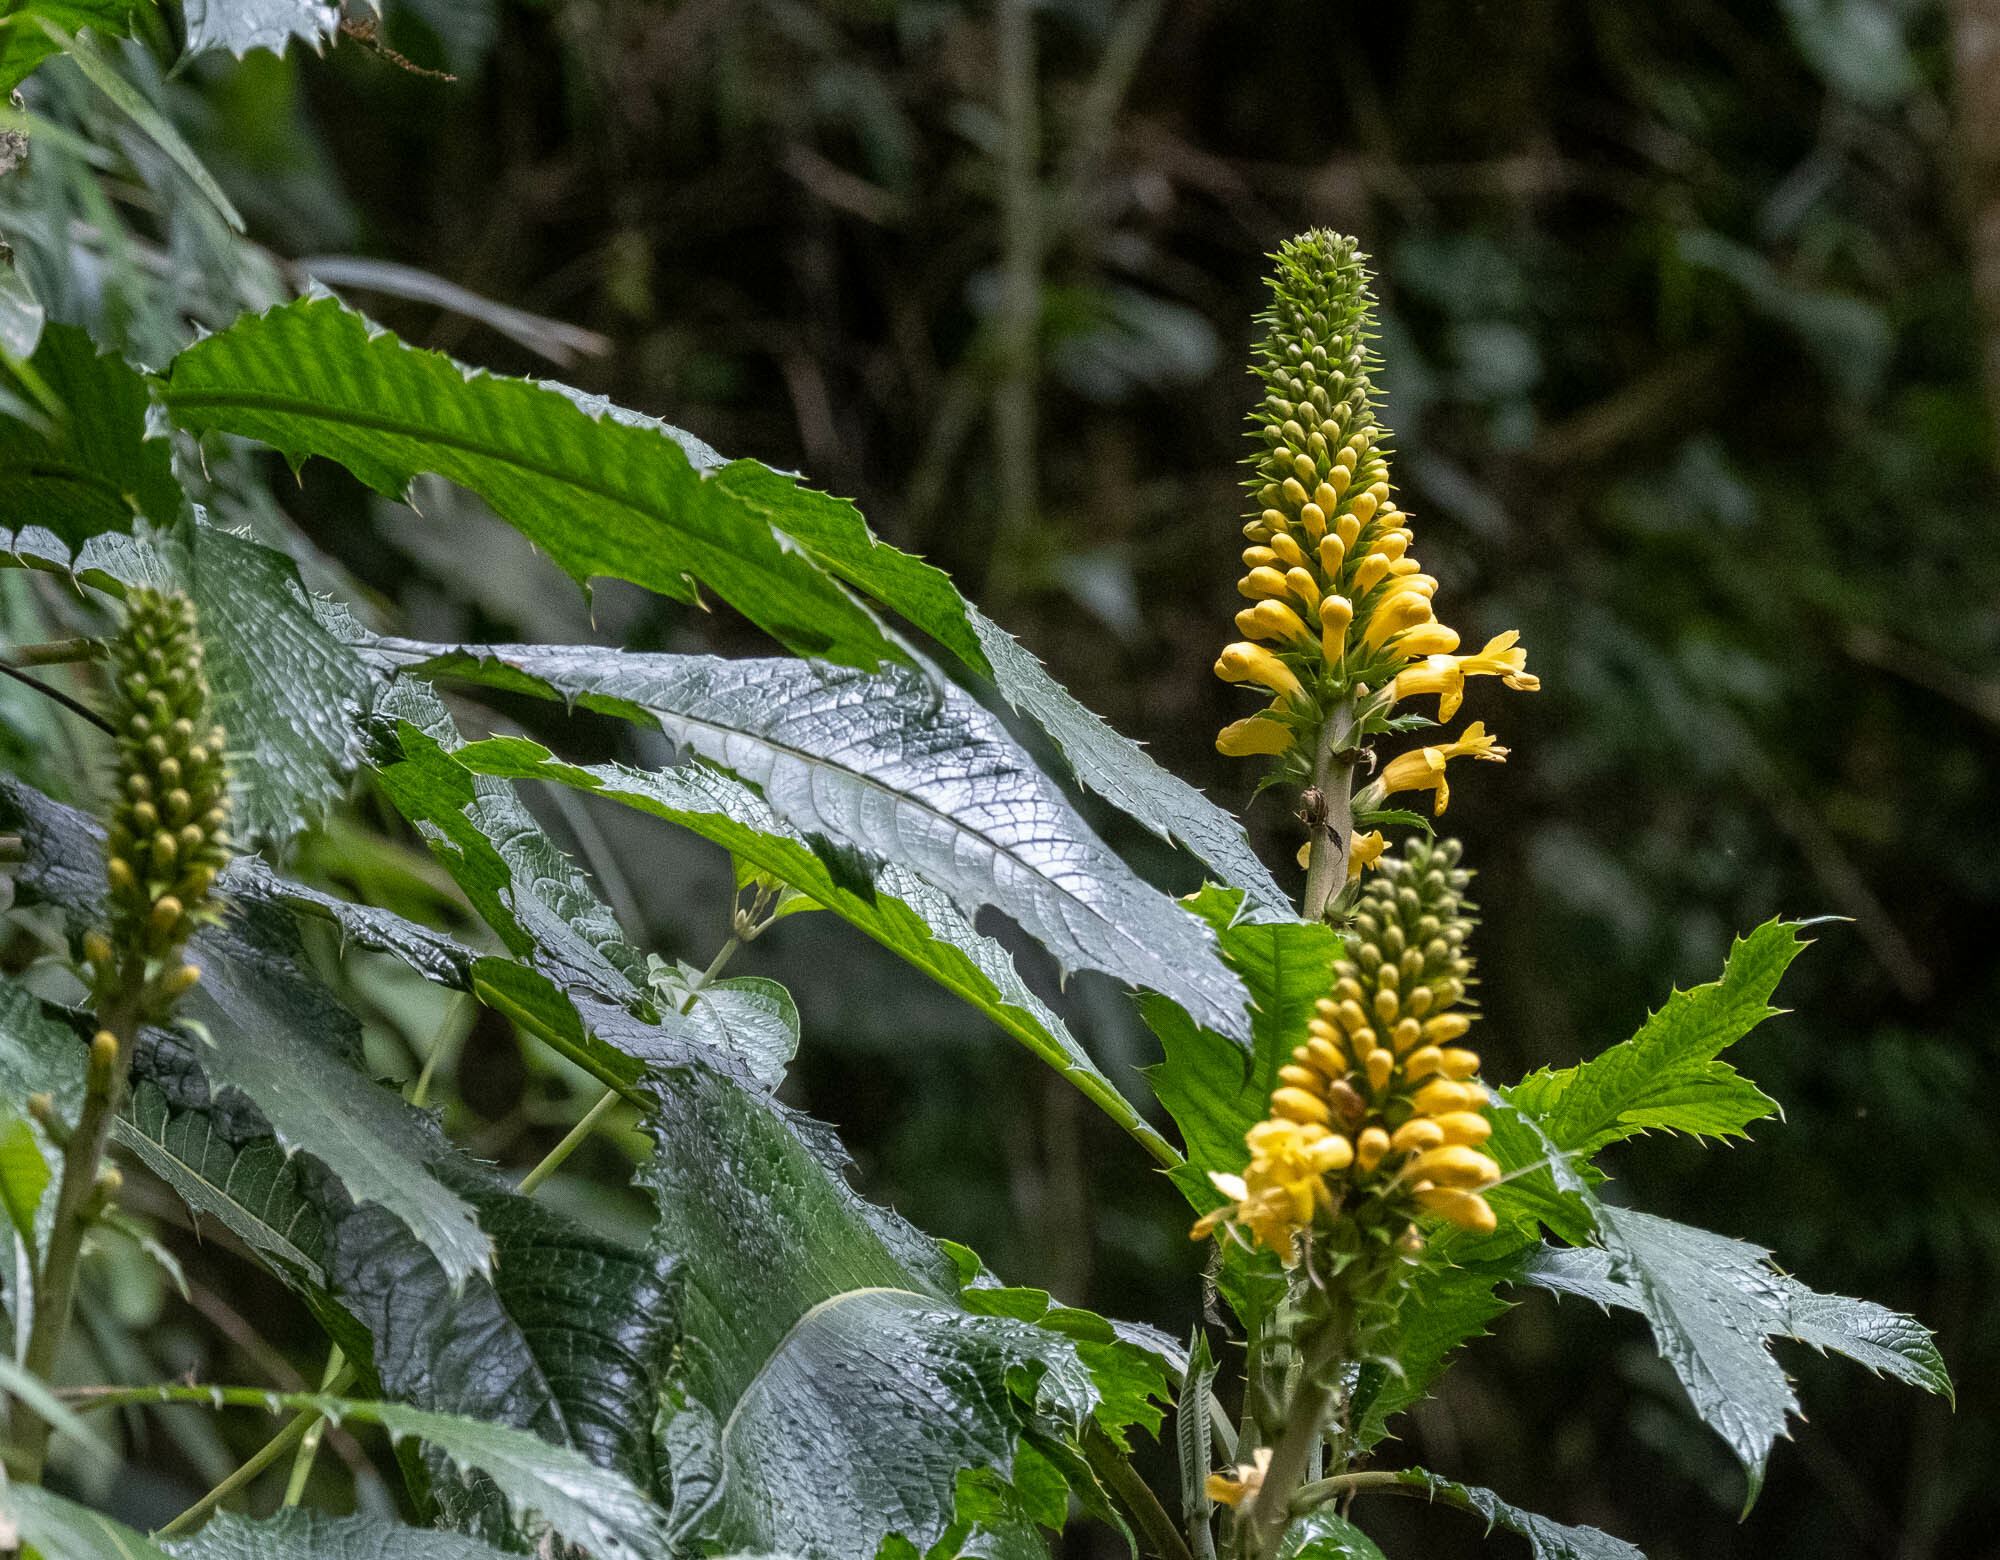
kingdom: Plantae
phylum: Tracheophyta
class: Magnoliopsida
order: Lamiales
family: Acanthaceae
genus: Aphelandra
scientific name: Aphelandra acanthus
